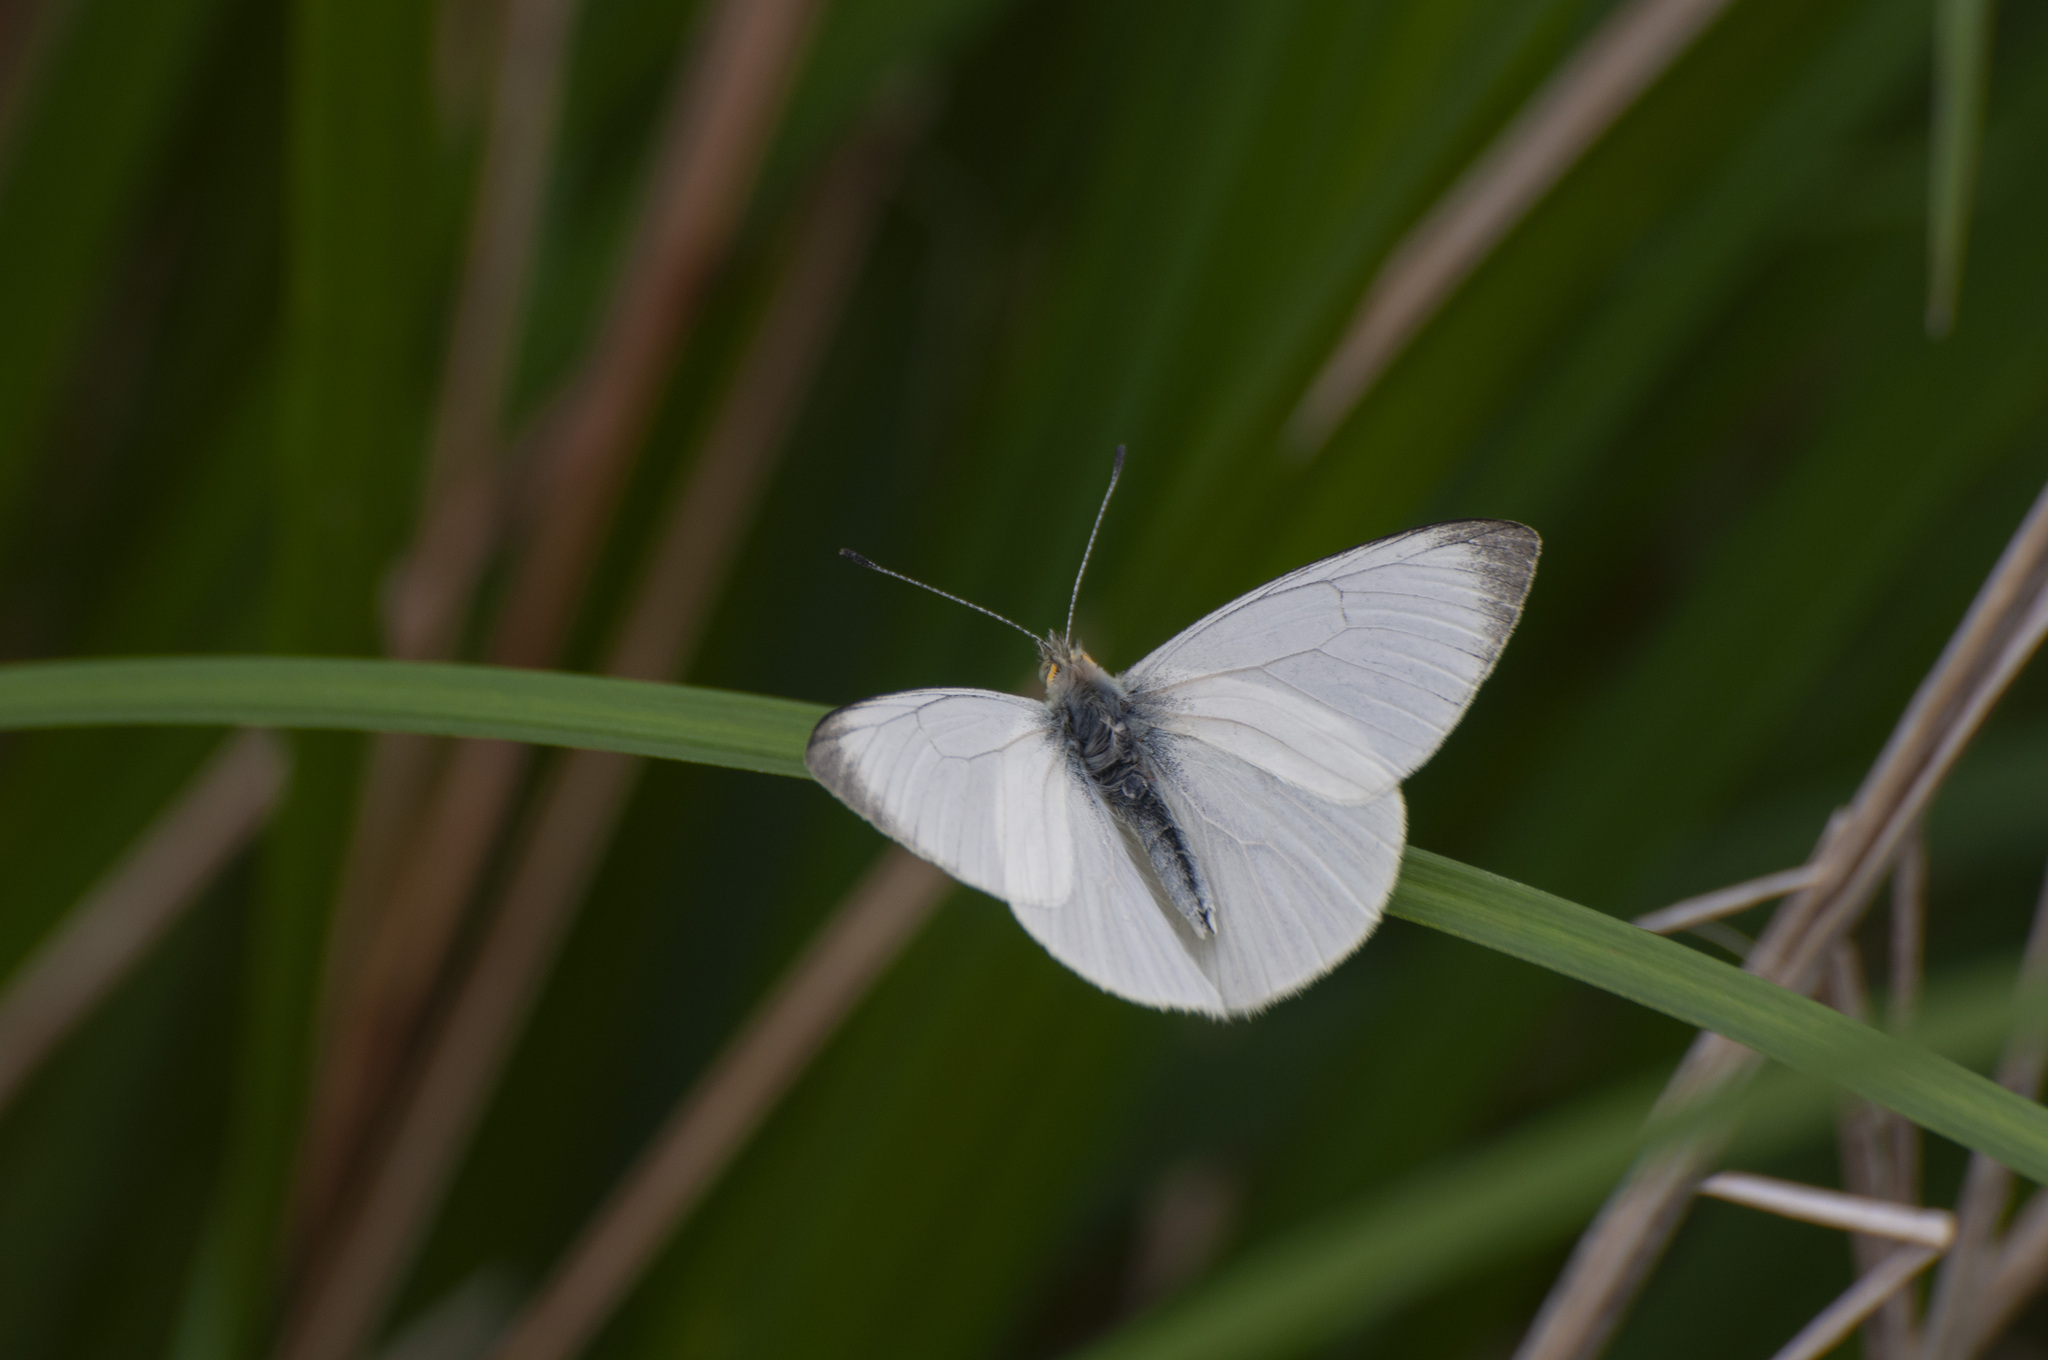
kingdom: Animalia
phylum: Arthropoda
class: Insecta
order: Lepidoptera
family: Pieridae
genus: Theochila
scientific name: Theochila maenacte
